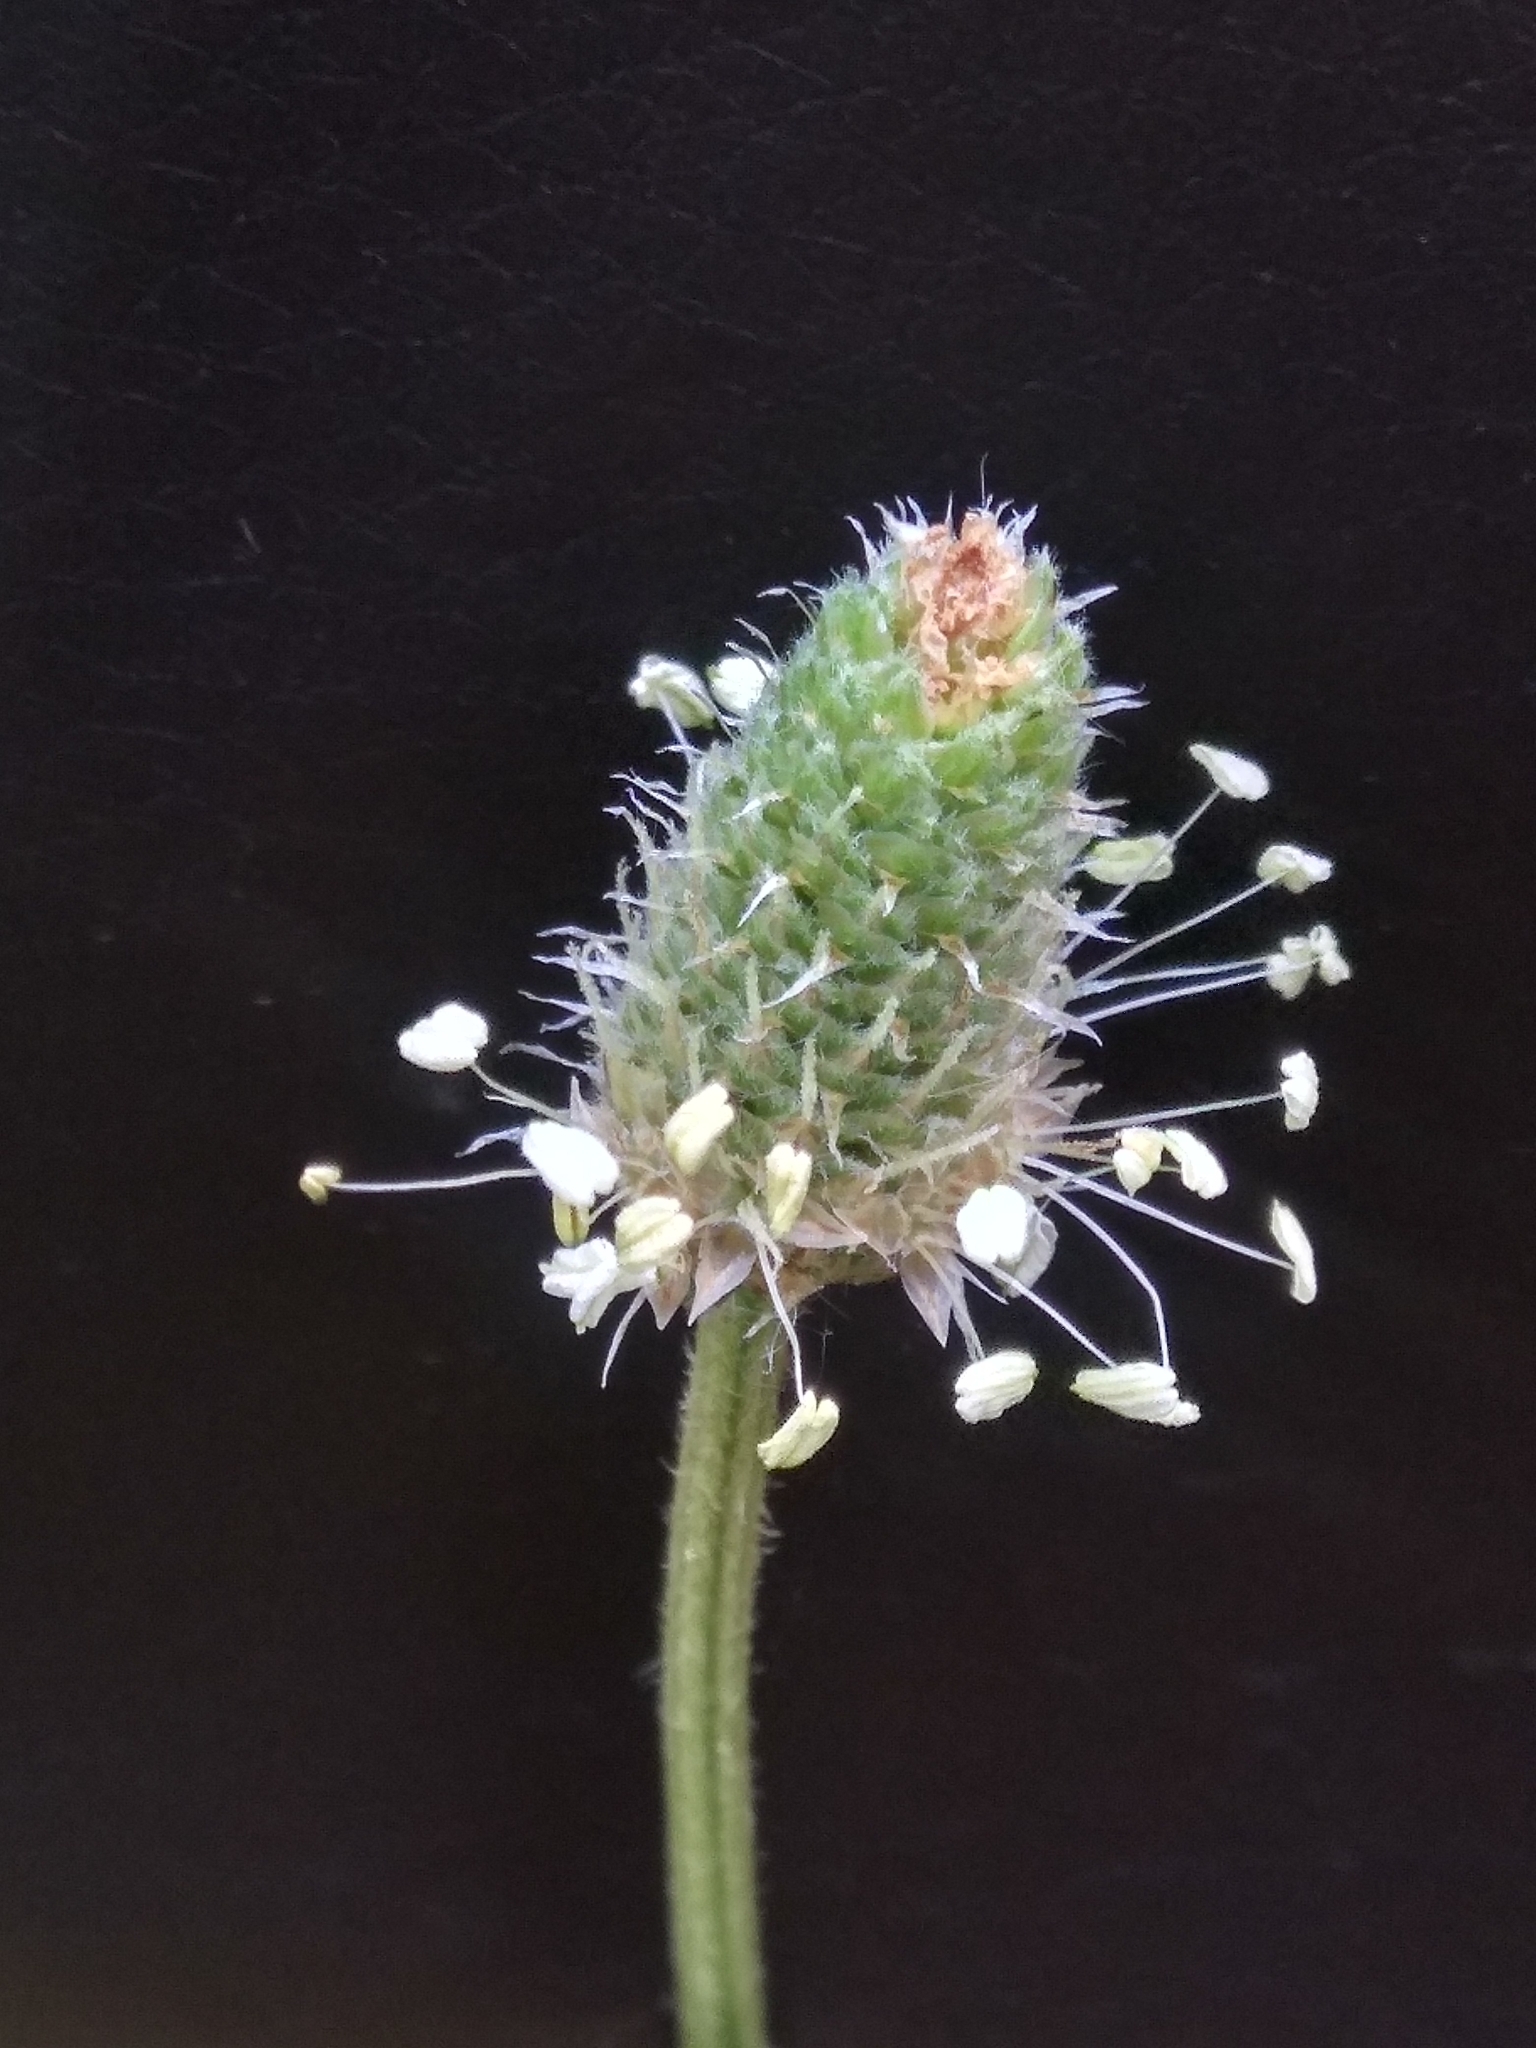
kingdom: Plantae
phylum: Tracheophyta
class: Magnoliopsida
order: Lamiales
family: Plantaginaceae
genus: Plantago
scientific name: Plantago lanceolata
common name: Ribwort plantain
